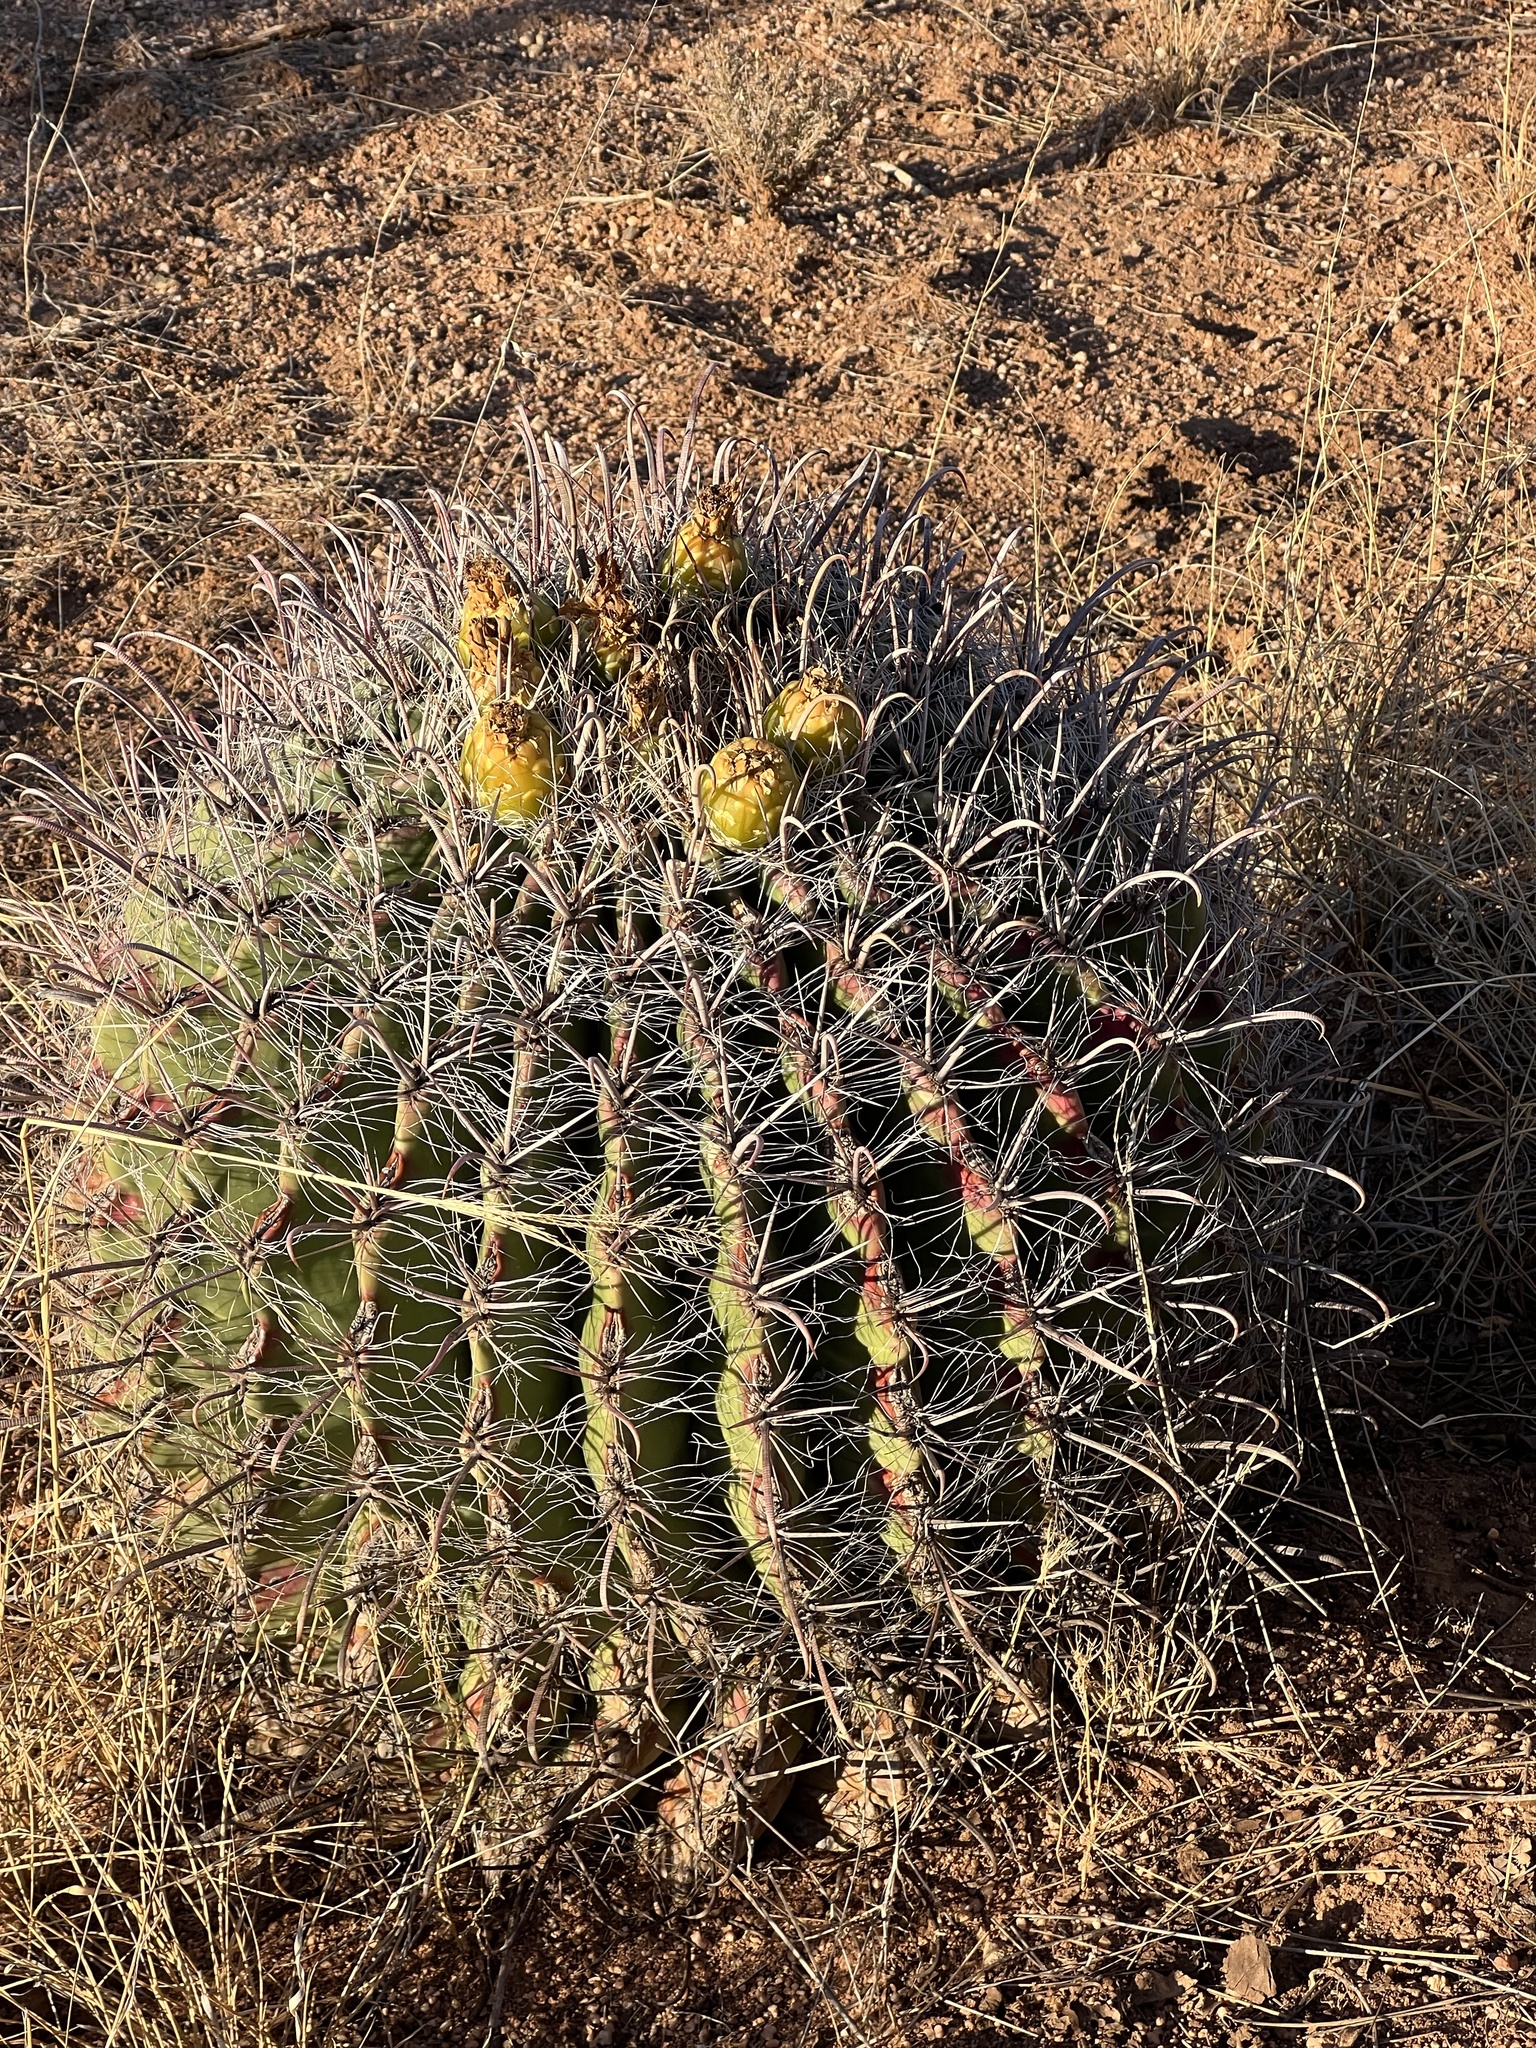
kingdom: Plantae
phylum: Tracheophyta
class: Magnoliopsida
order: Caryophyllales
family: Cactaceae
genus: Ferocactus
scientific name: Ferocactus wislizeni
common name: Candy barrel cactus
